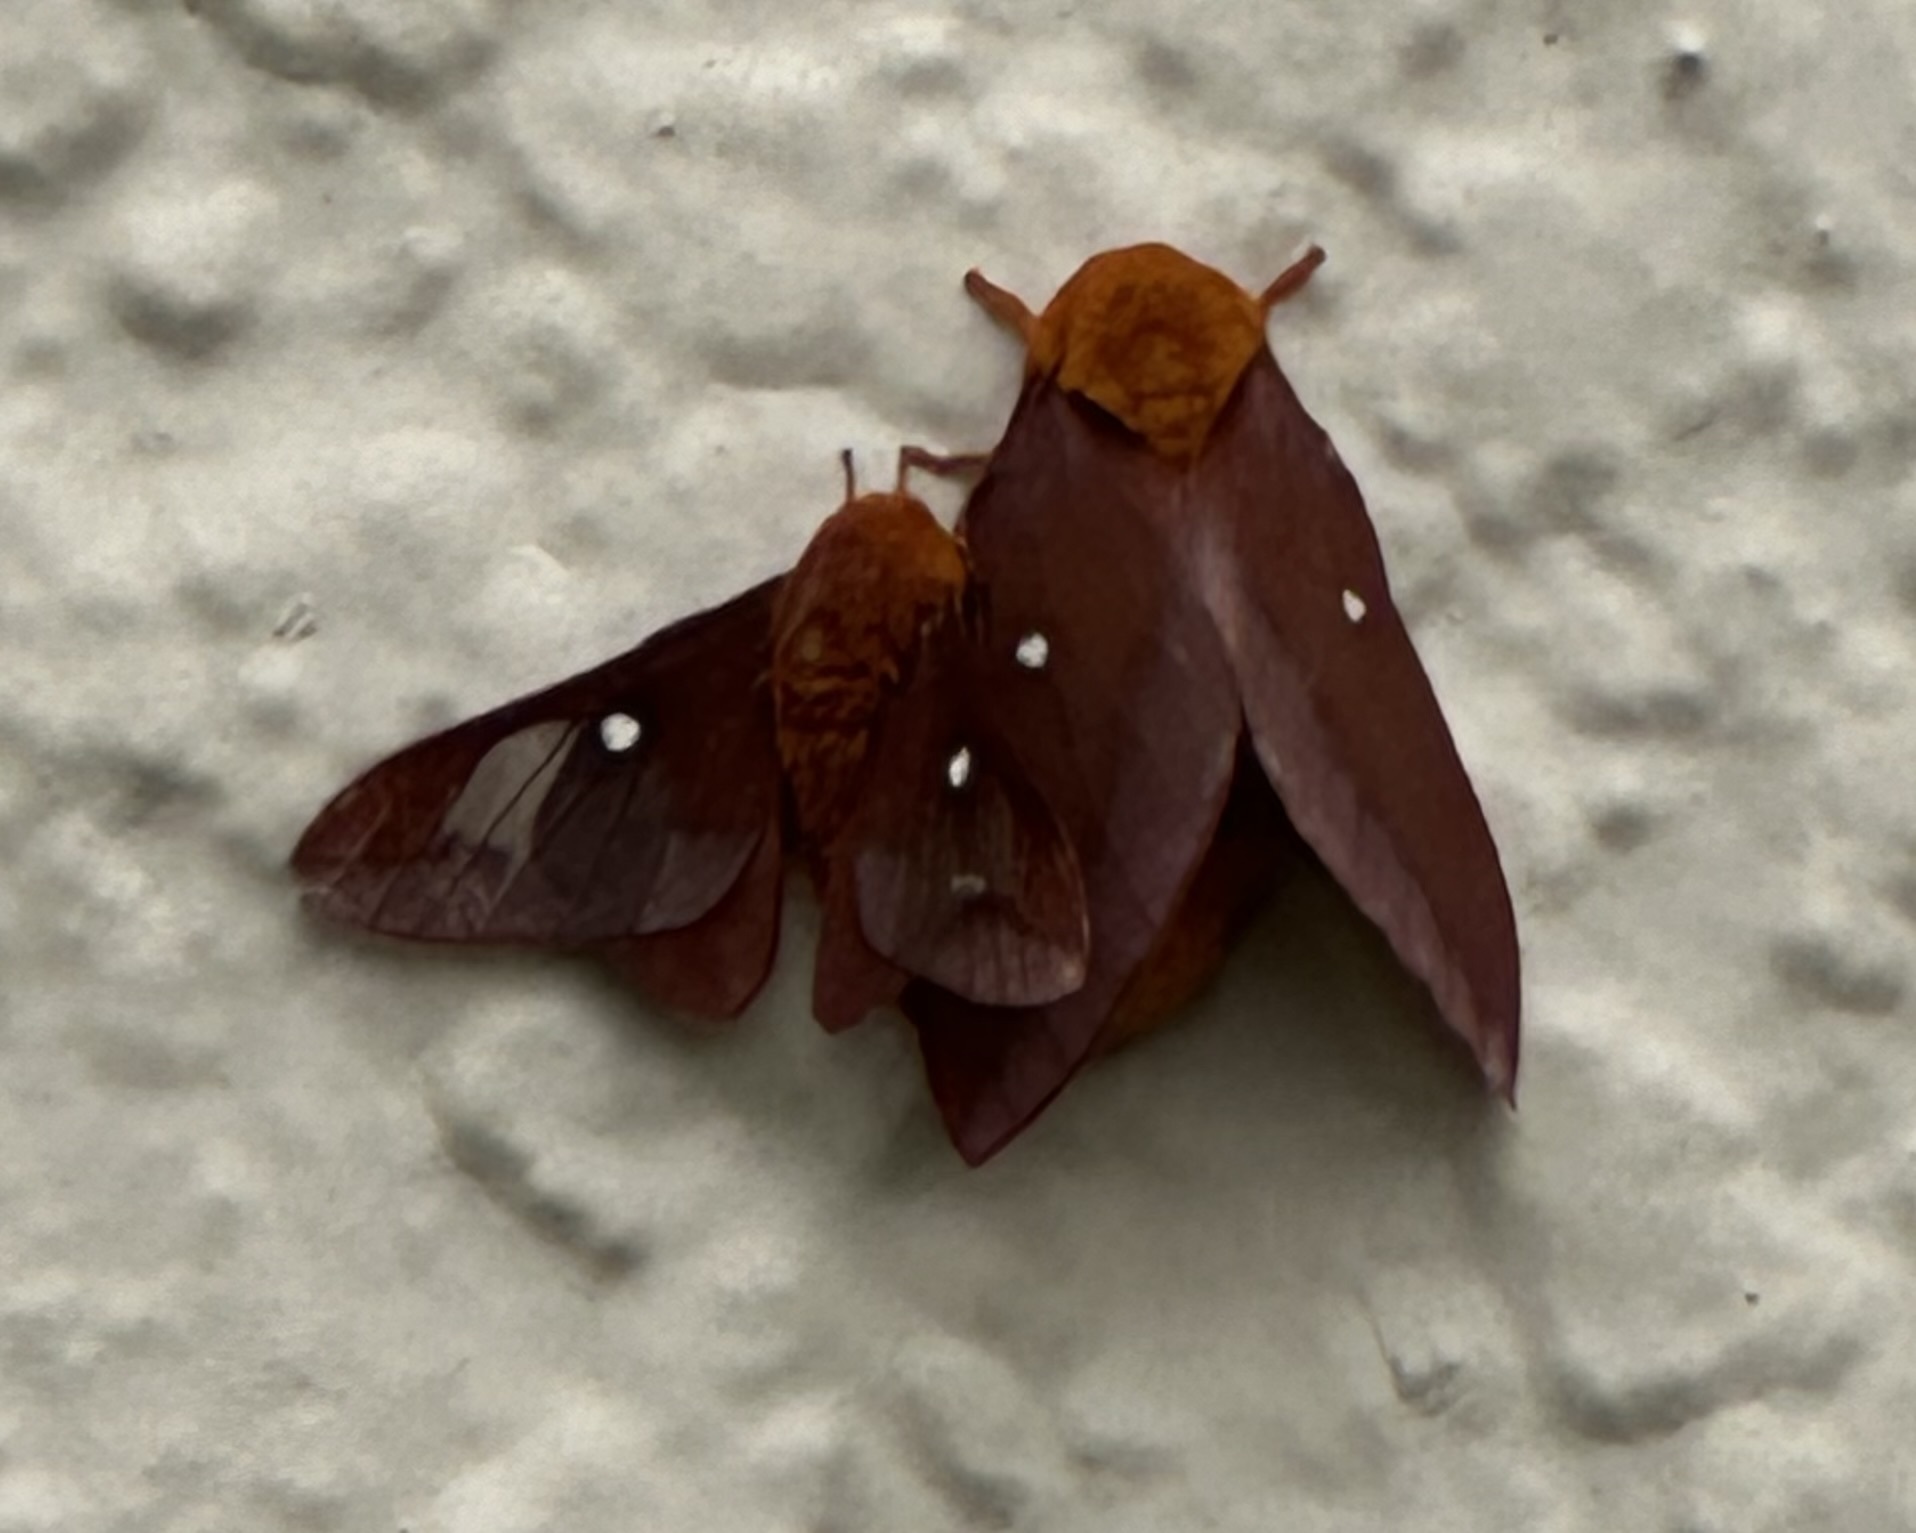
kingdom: Animalia
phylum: Arthropoda
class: Insecta
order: Lepidoptera
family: Saturniidae
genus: Anisota
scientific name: Anisota virginiensis
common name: Pink striped oakworm moth
